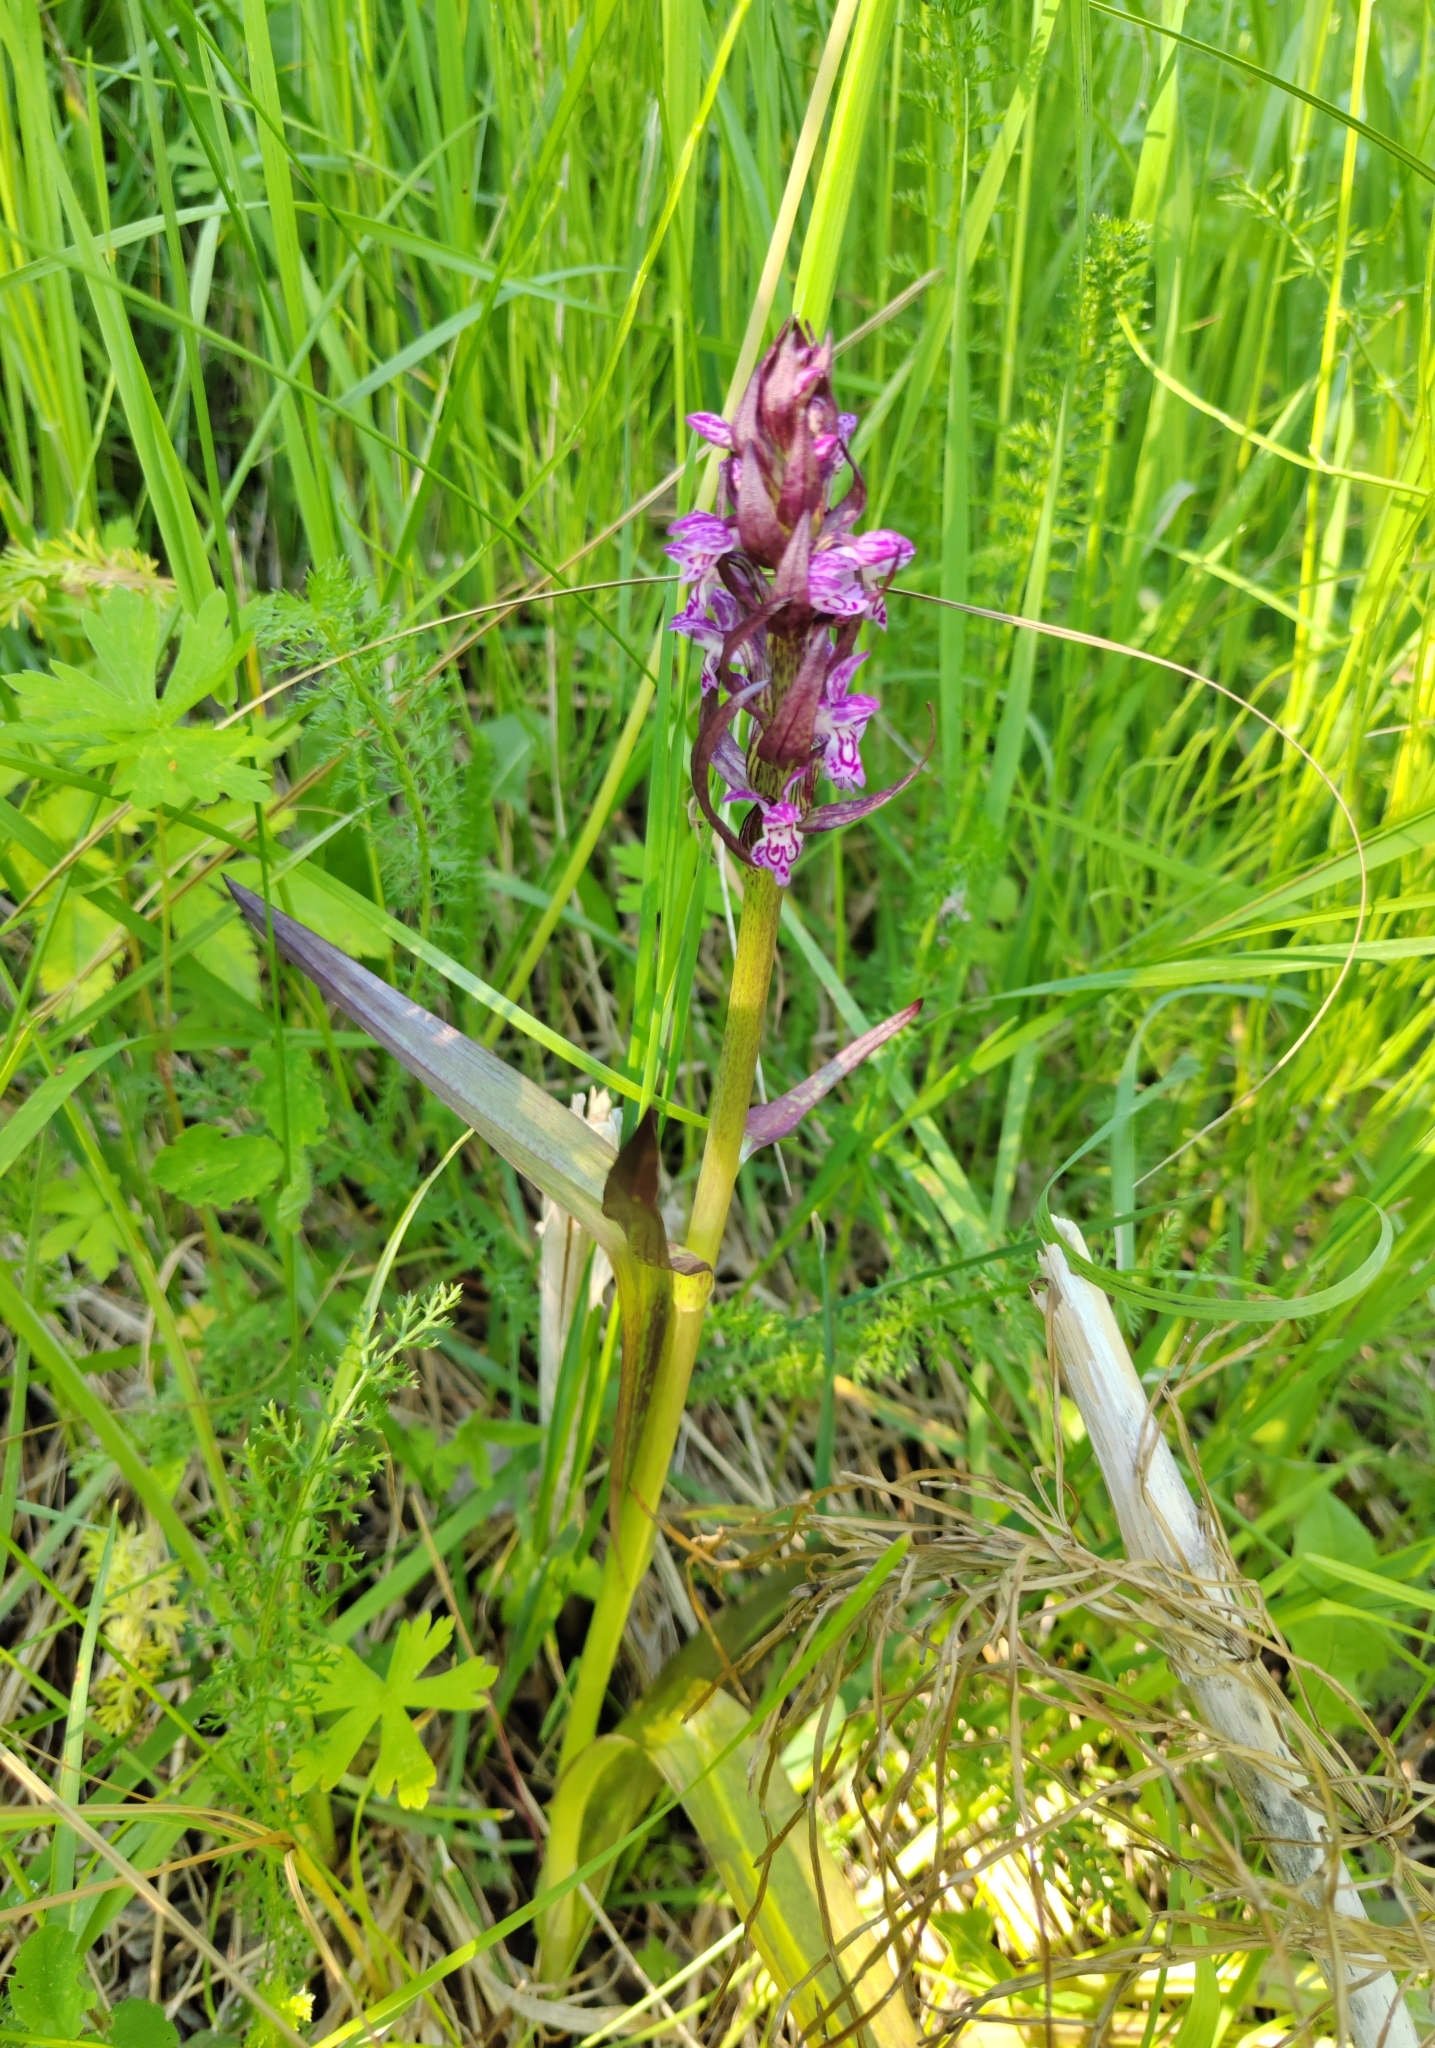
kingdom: Plantae
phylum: Tracheophyta
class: Liliopsida
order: Asparagales
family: Orchidaceae
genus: Dactylorhiza
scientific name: Dactylorhiza incarnata
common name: Early marsh-orchid
